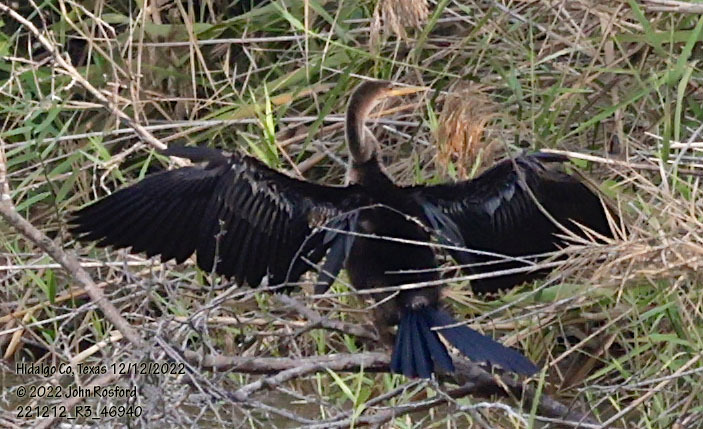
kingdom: Animalia
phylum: Chordata
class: Aves
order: Suliformes
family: Anhingidae
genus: Anhinga
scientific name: Anhinga anhinga
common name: Anhinga
